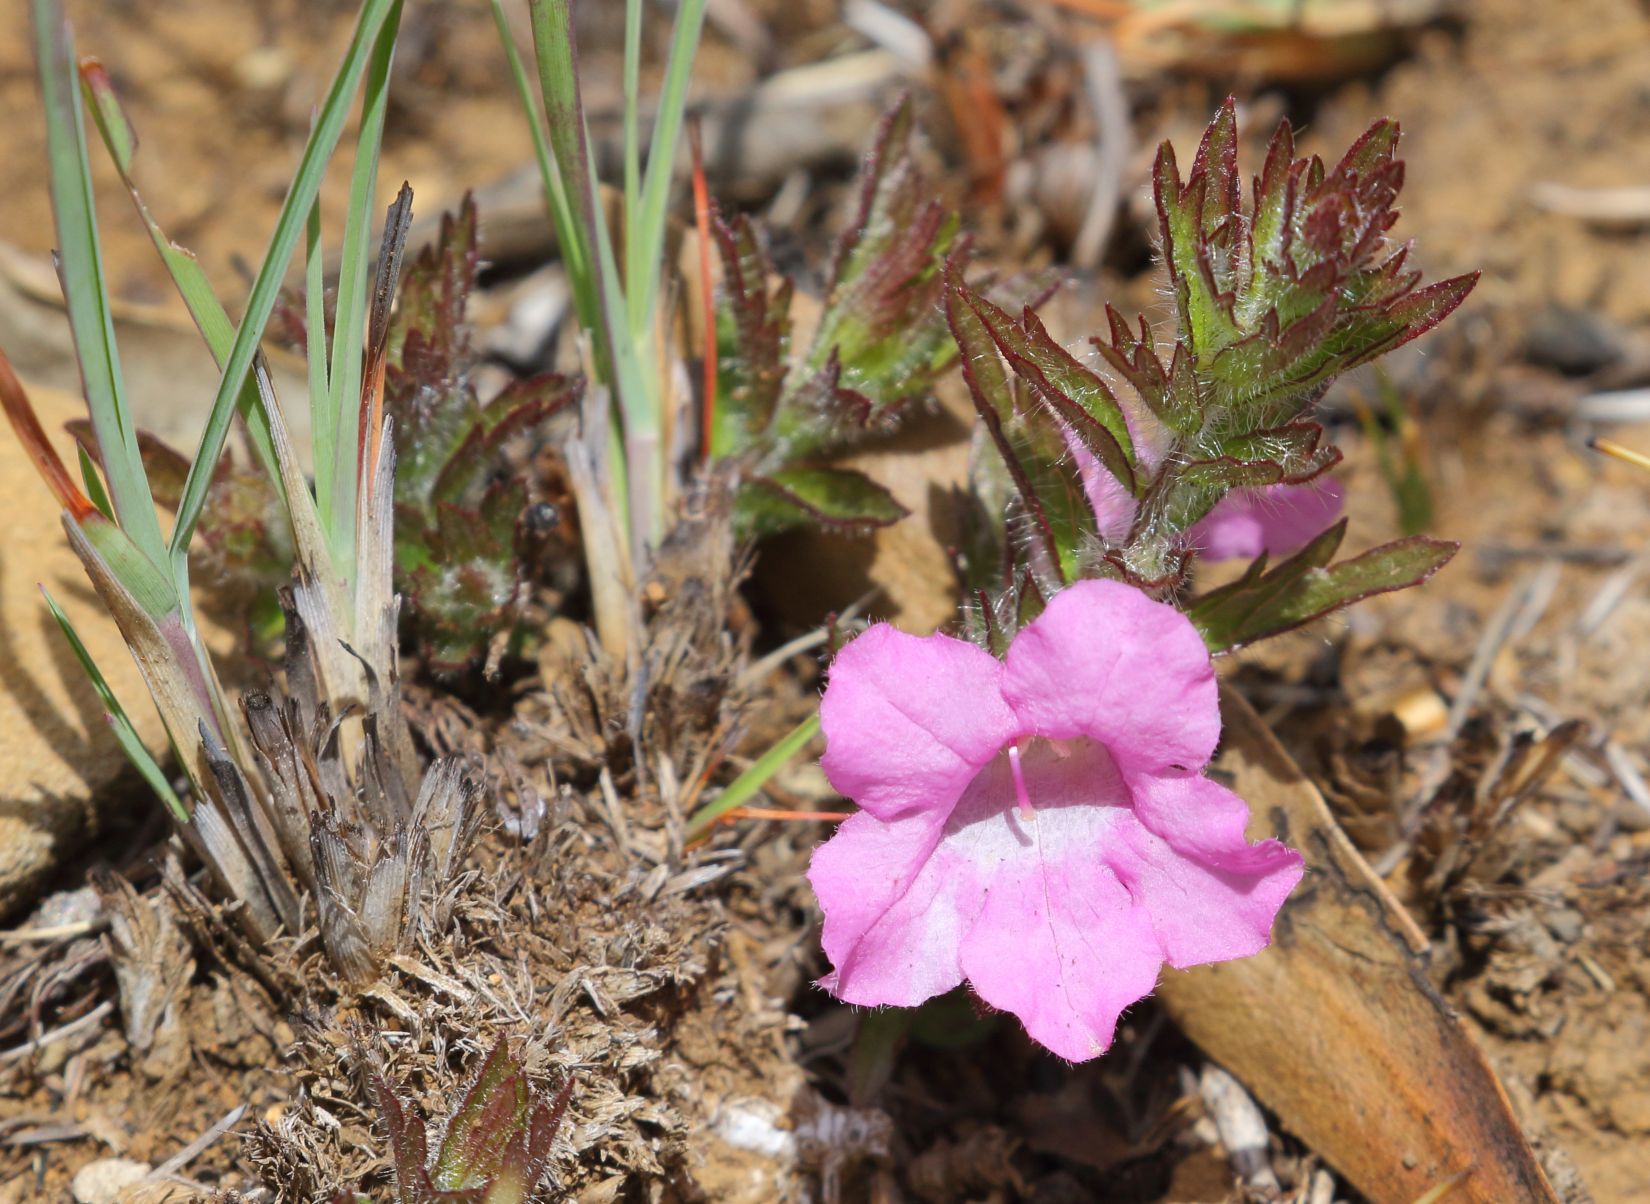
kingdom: Plantae
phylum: Tracheophyta
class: Magnoliopsida
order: Lamiales
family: Orobanchaceae
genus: Graderia
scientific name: Graderia scabra
